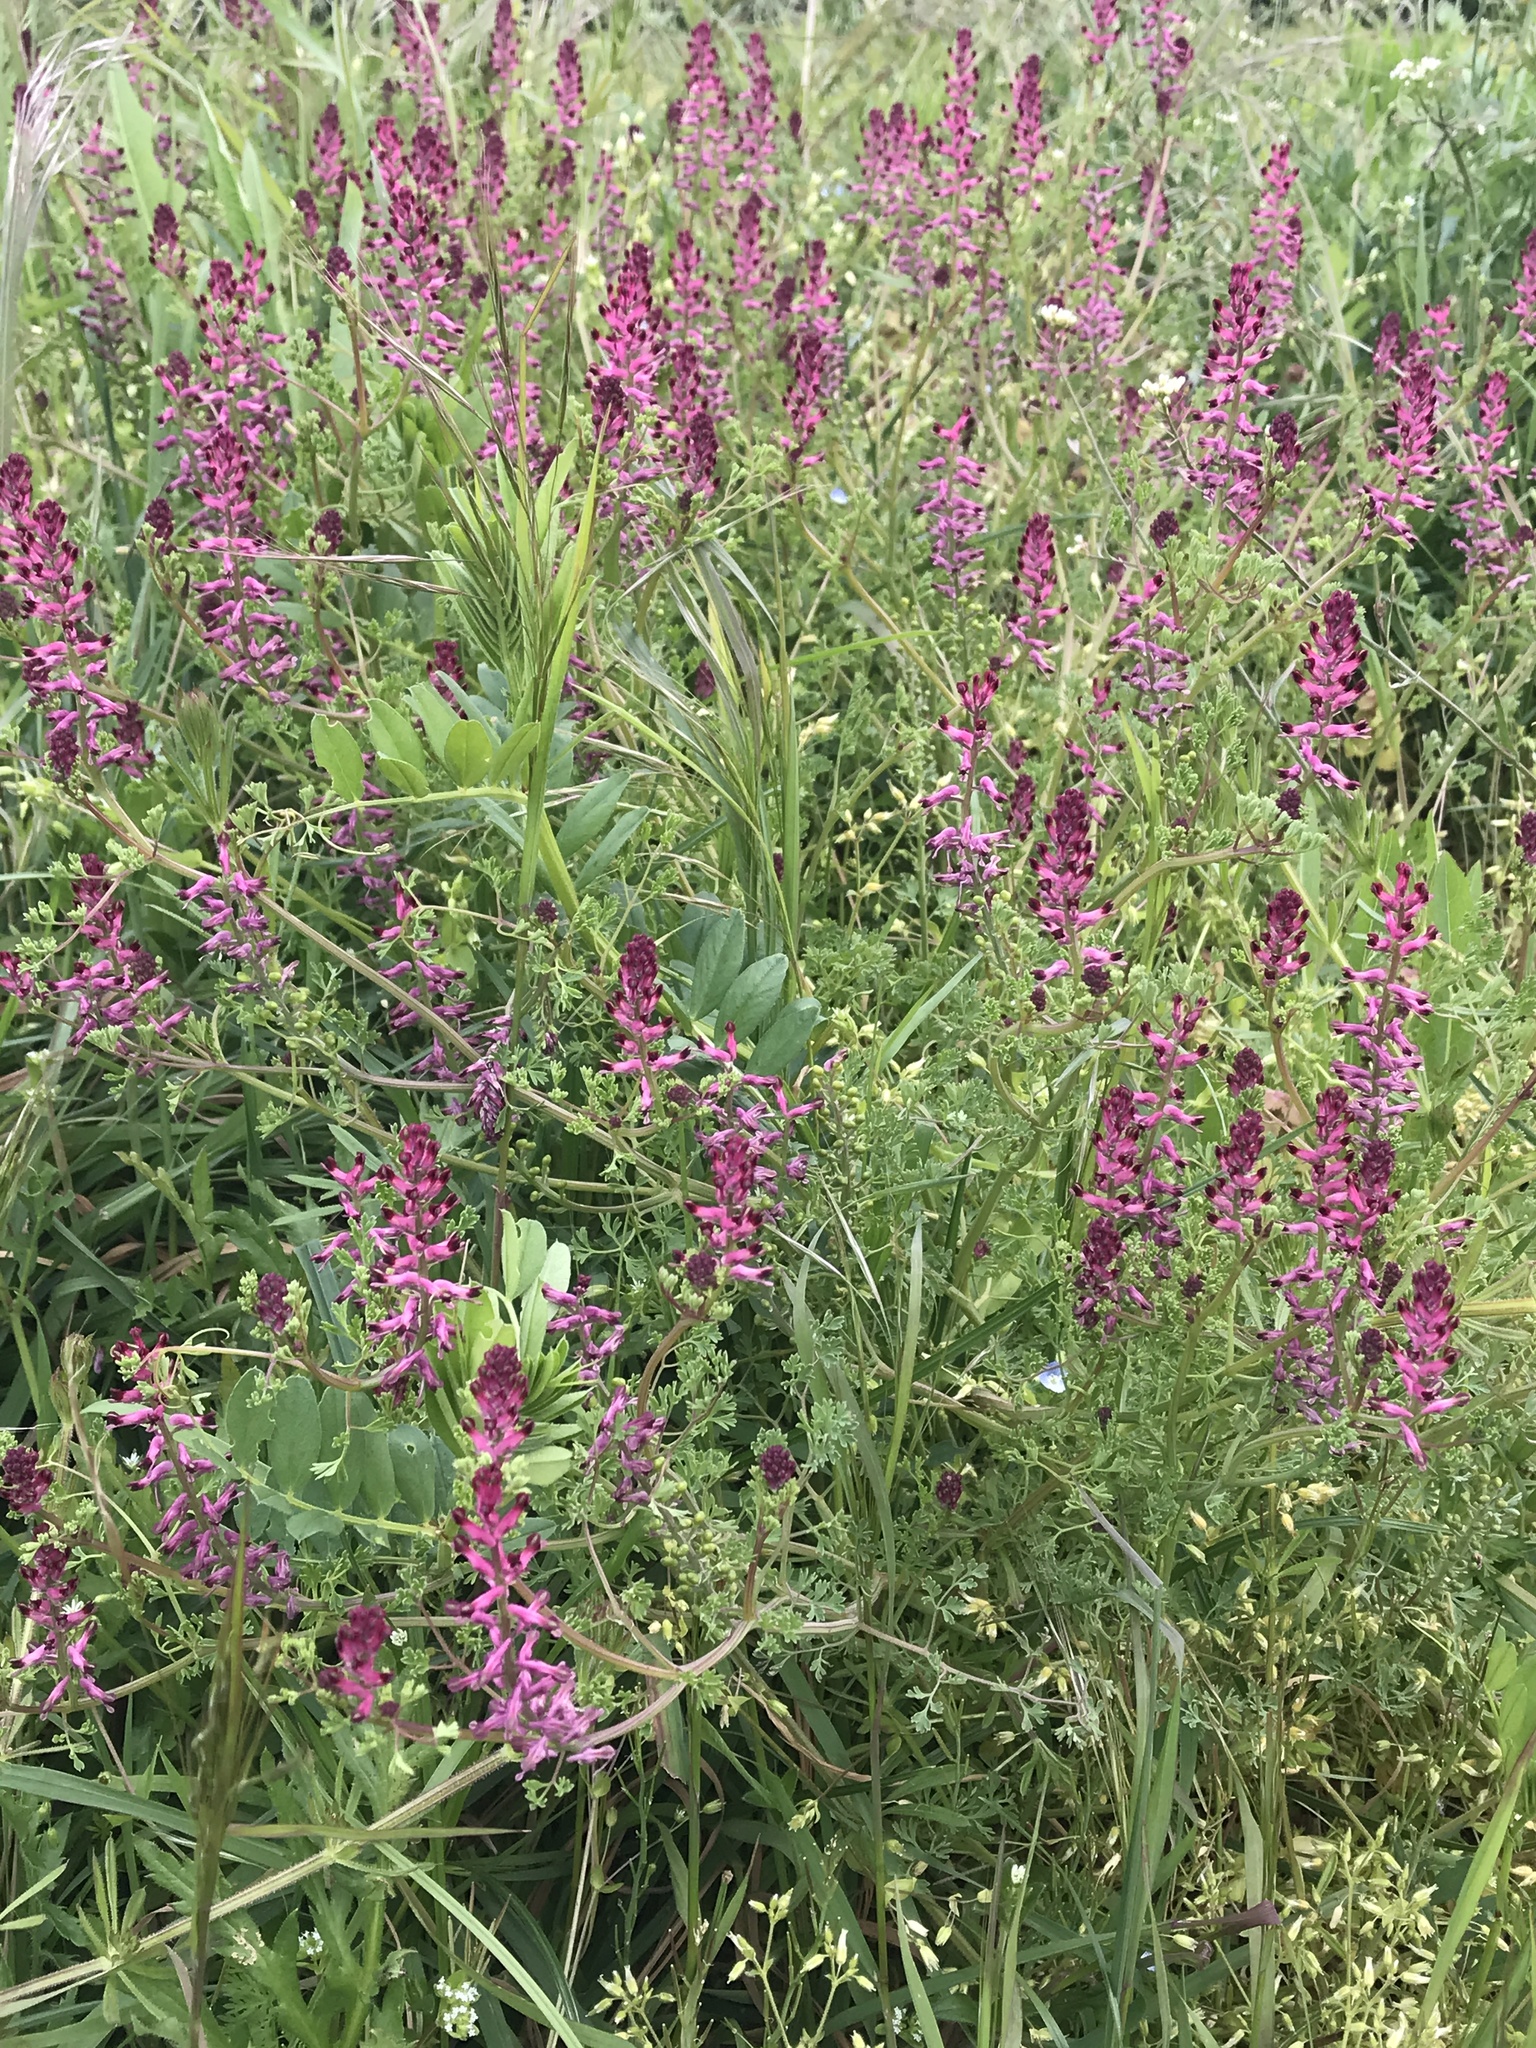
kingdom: Plantae
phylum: Tracheophyta
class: Magnoliopsida
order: Ranunculales
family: Papaveraceae
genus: Fumaria
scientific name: Fumaria officinalis
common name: Common fumitory
